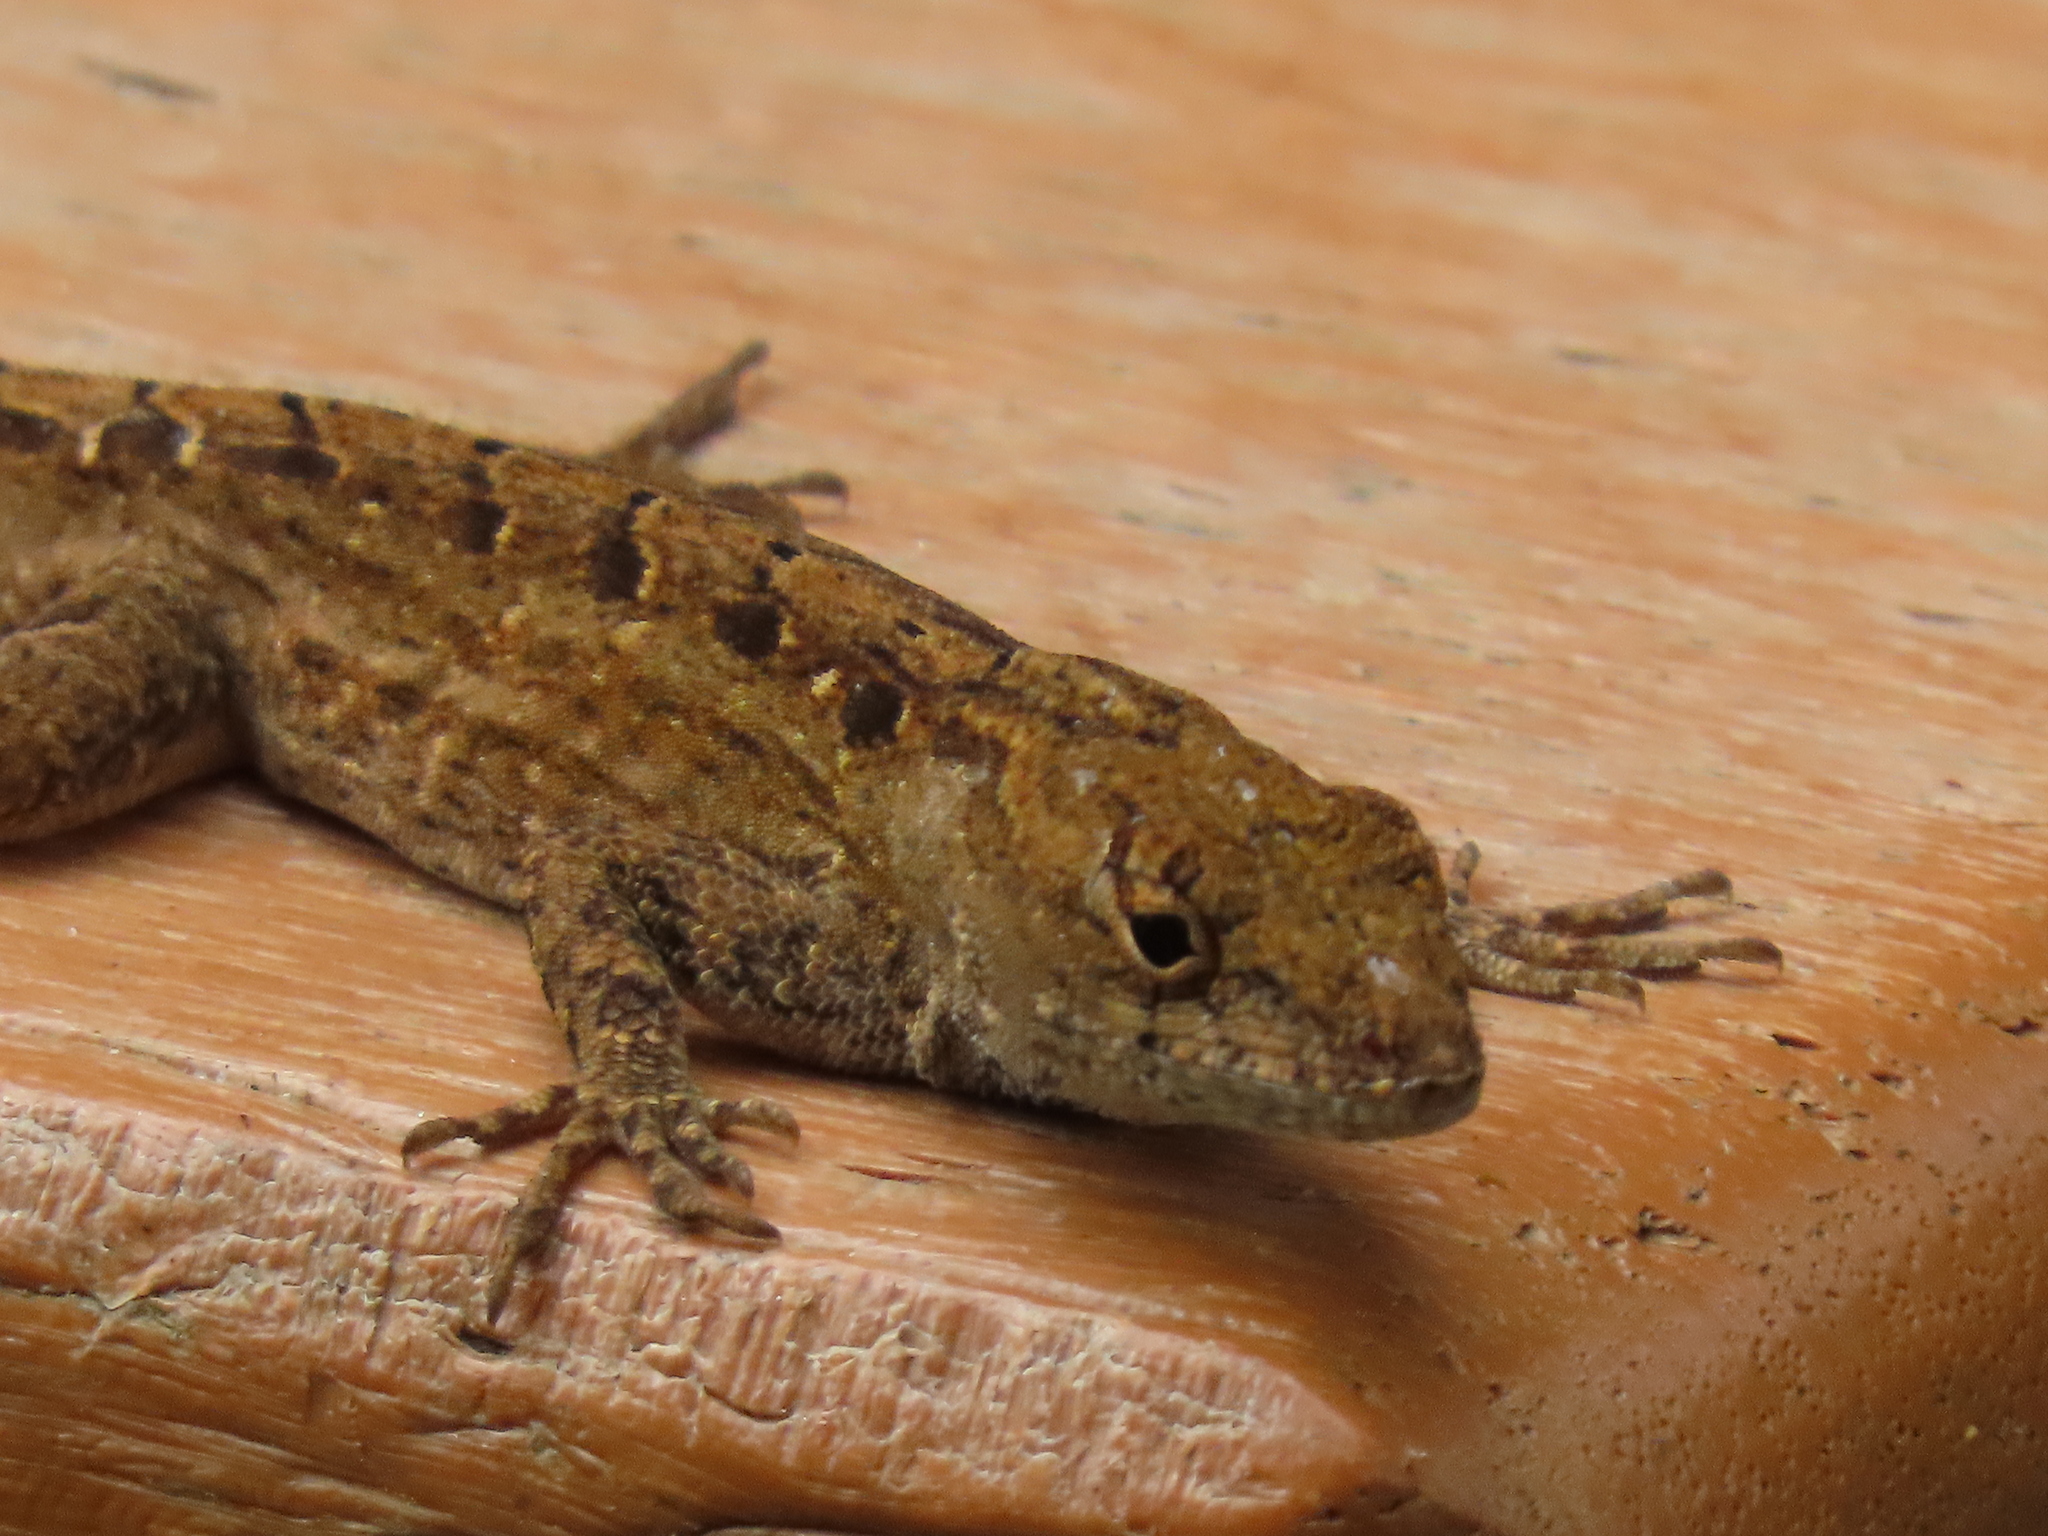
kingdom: Animalia
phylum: Chordata
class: Squamata
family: Dactyloidae
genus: Anolis
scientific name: Anolis sagrei
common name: Brown anole
